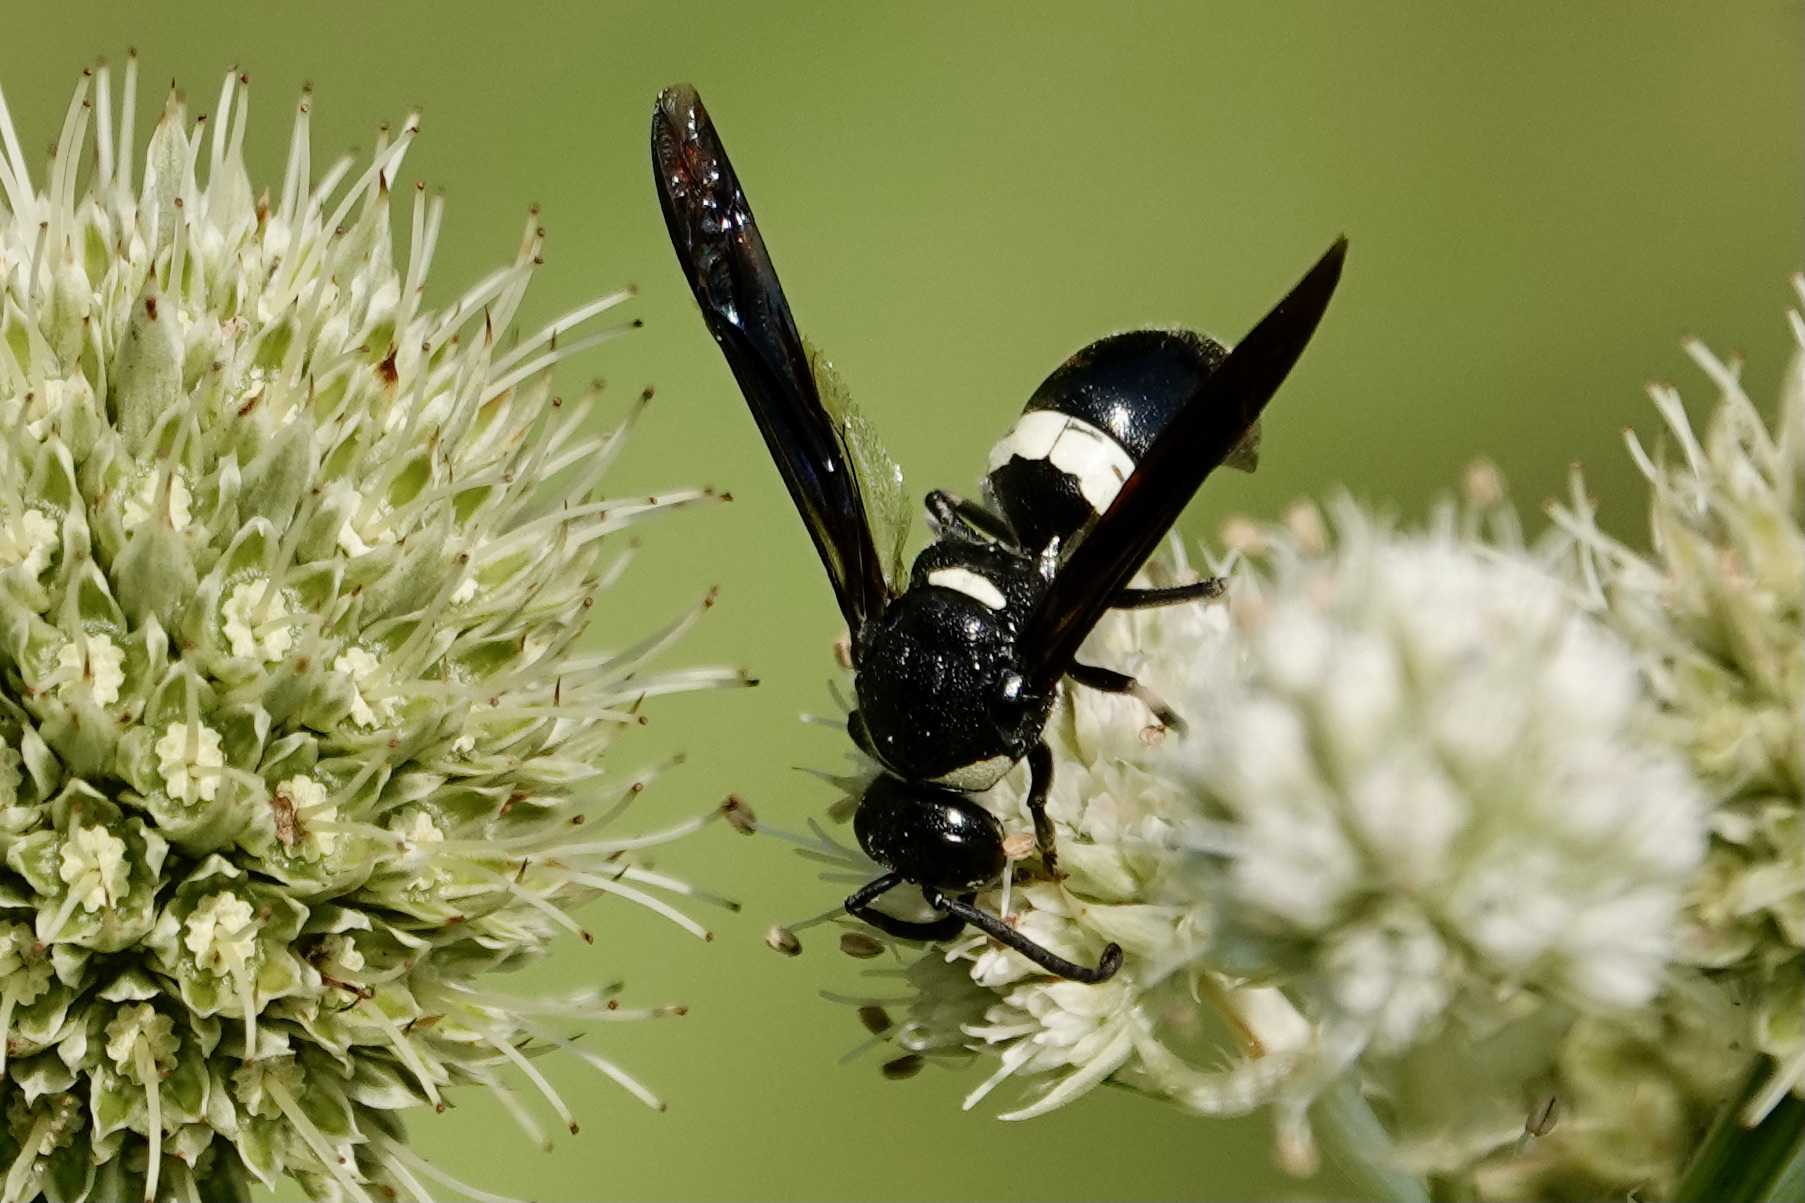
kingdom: Animalia
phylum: Arthropoda
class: Insecta
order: Hymenoptera
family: Eumenidae
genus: Monobia
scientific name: Monobia quadridens
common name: Four-toothed mason wasp
